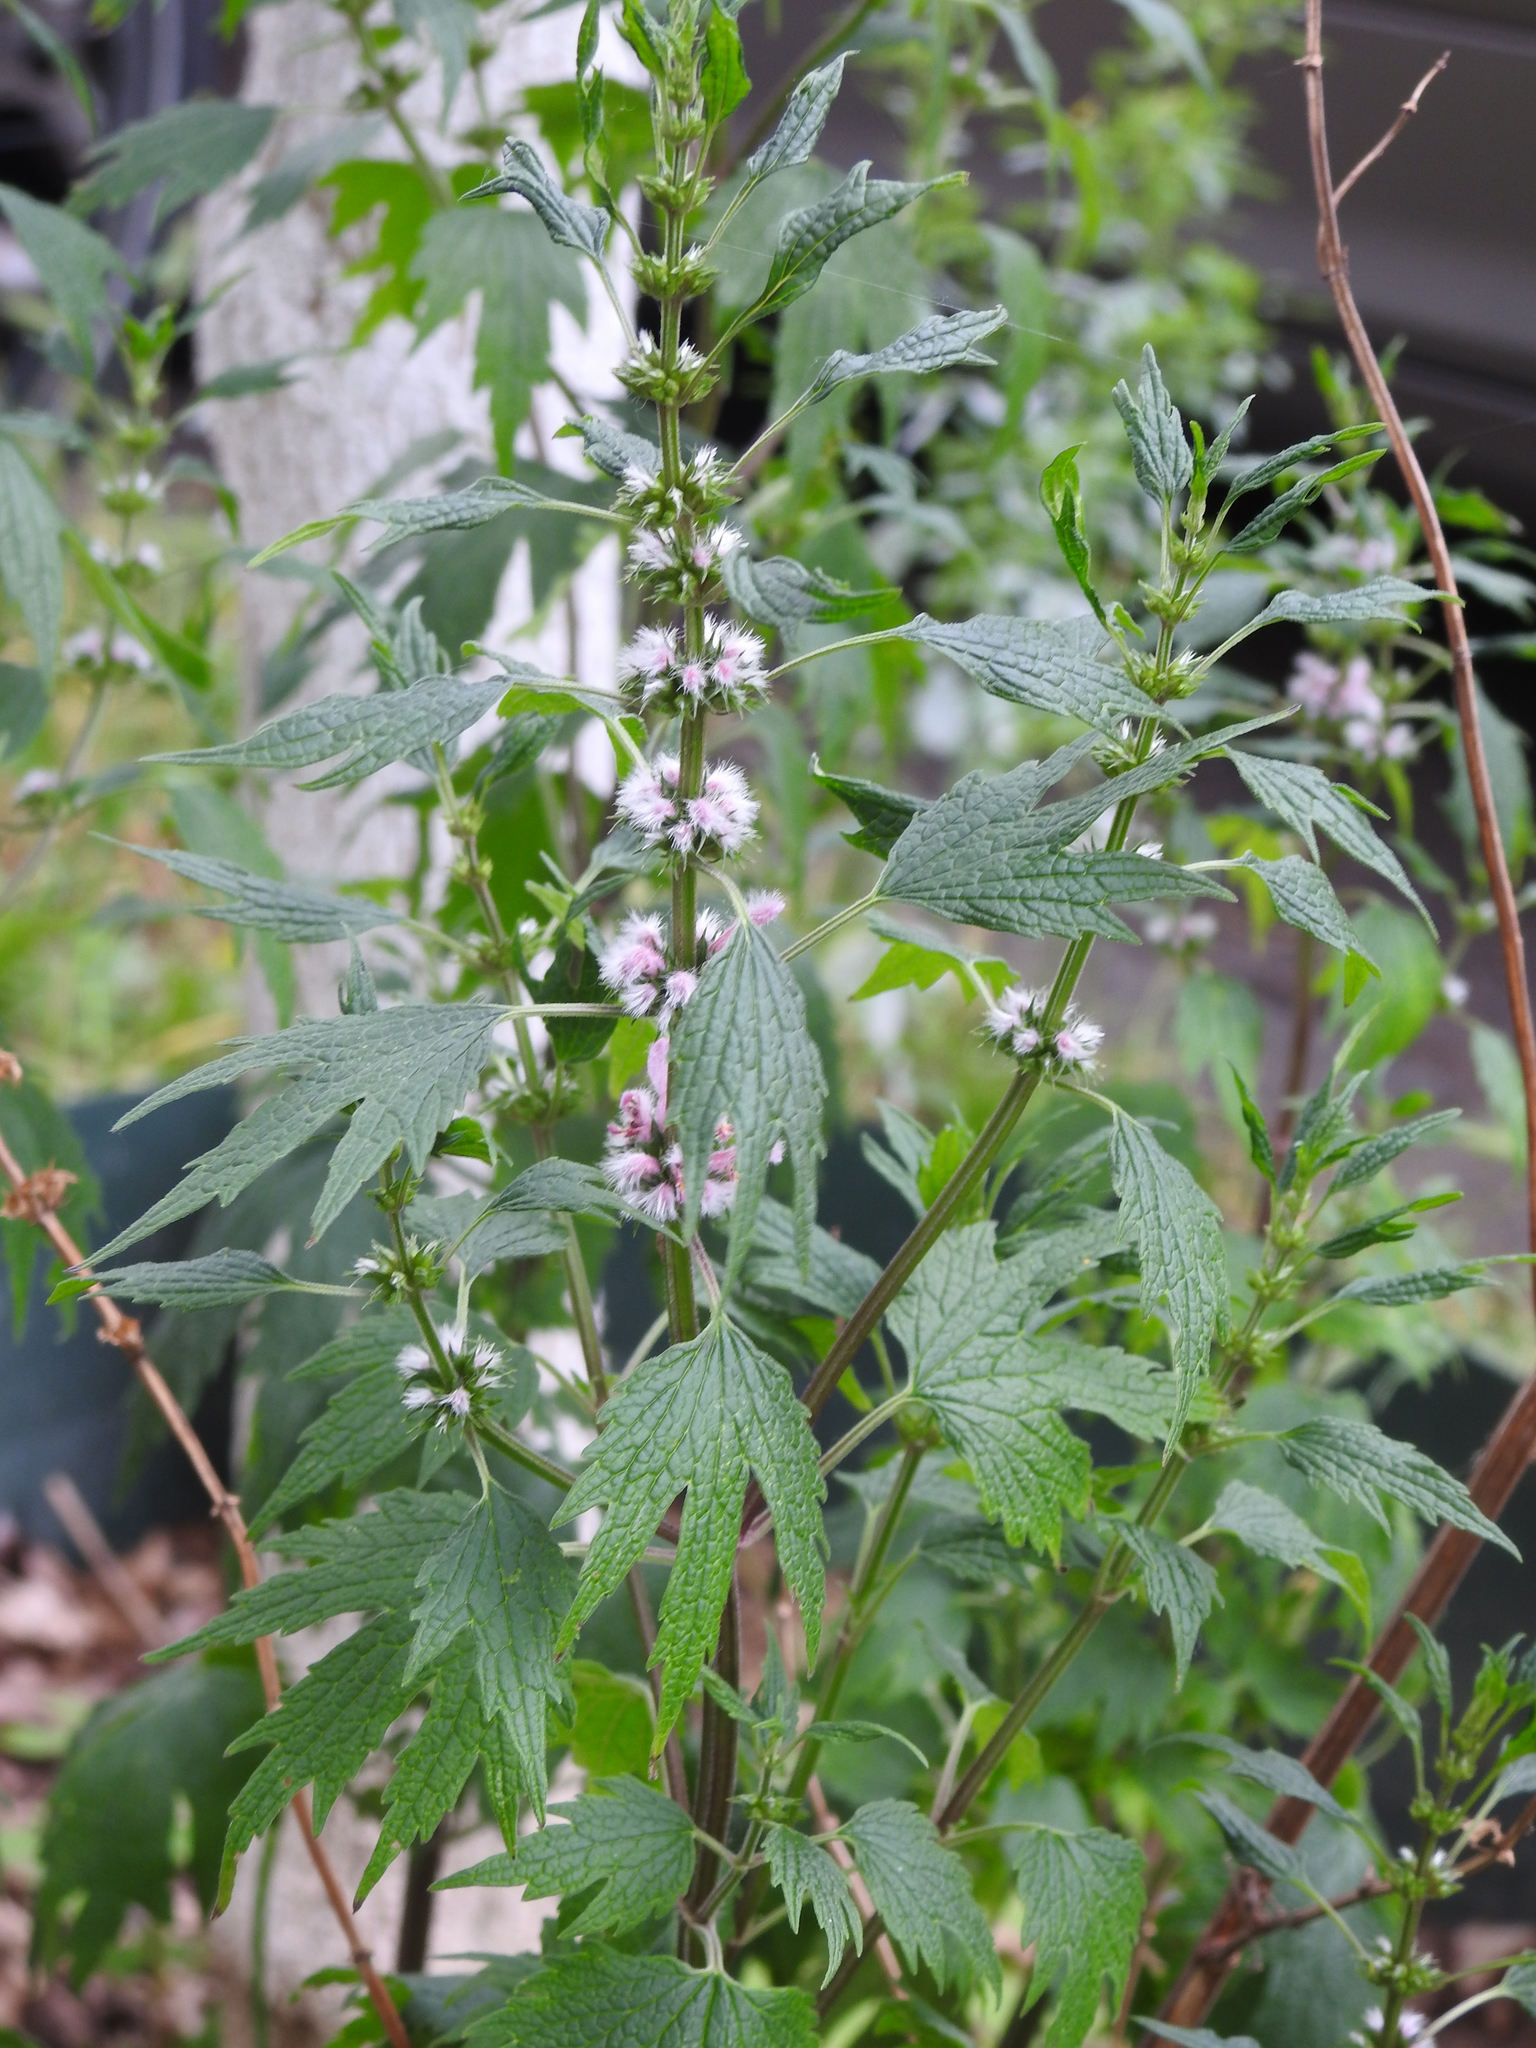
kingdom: Plantae
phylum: Tracheophyta
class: Magnoliopsida
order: Lamiales
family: Lamiaceae
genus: Leonurus
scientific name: Leonurus cardiaca
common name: Motherwort
